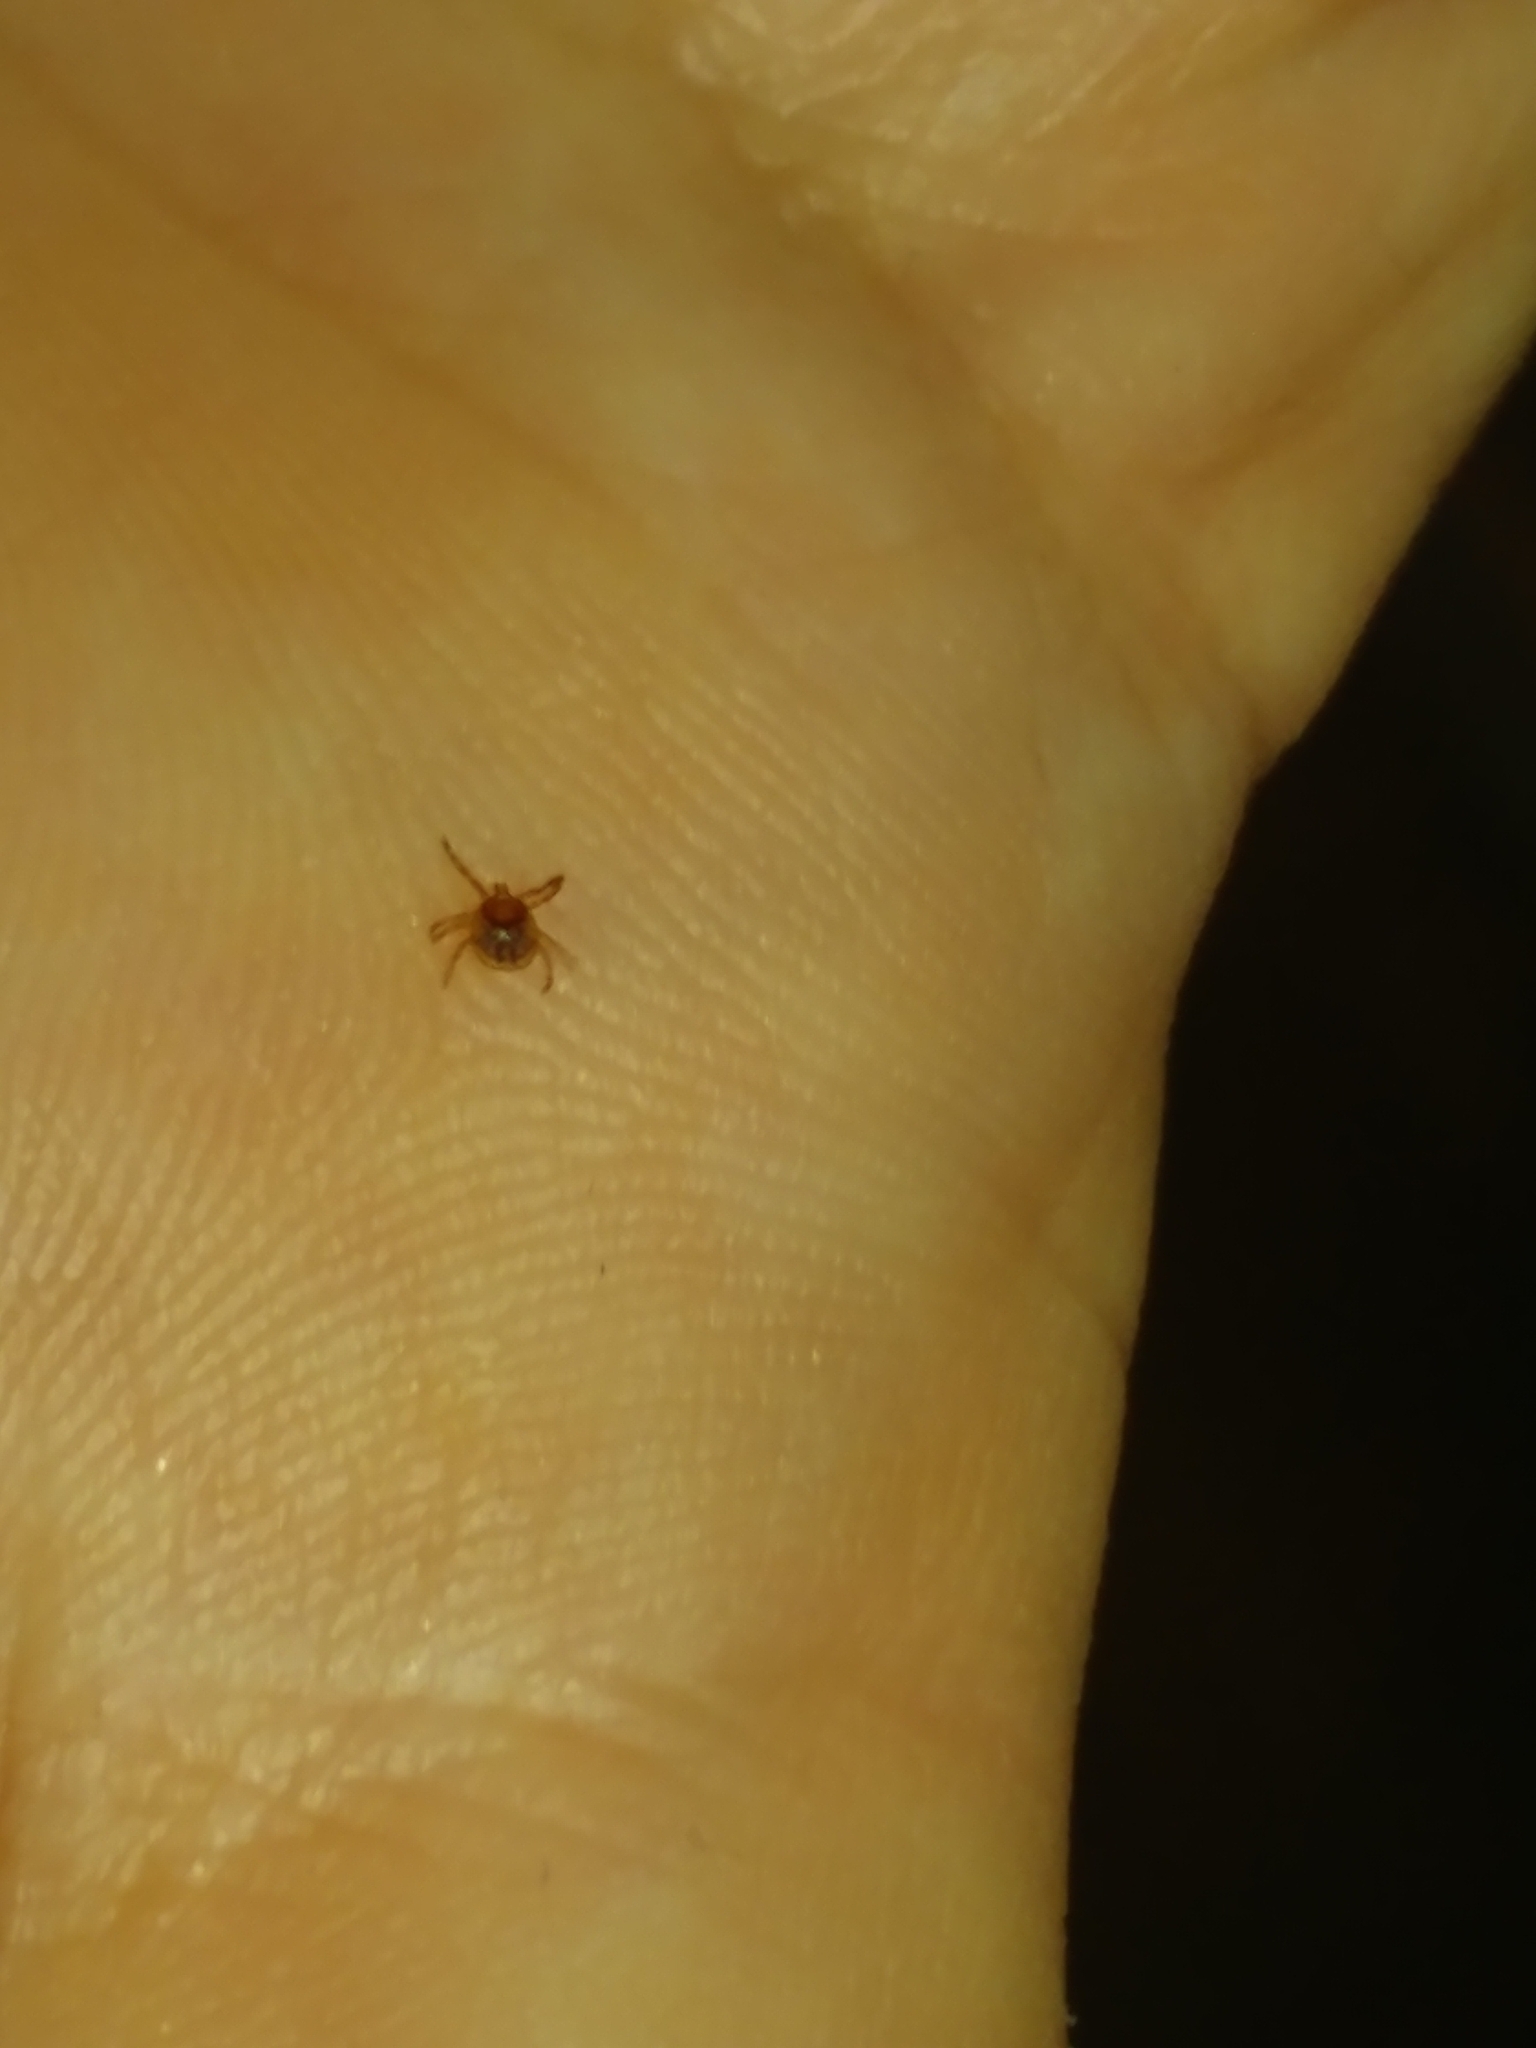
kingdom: Animalia
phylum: Arthropoda
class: Arachnida
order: Ixodida
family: Ixodidae
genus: Amblyomma
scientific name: Amblyomma americanum
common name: Lone star tick
